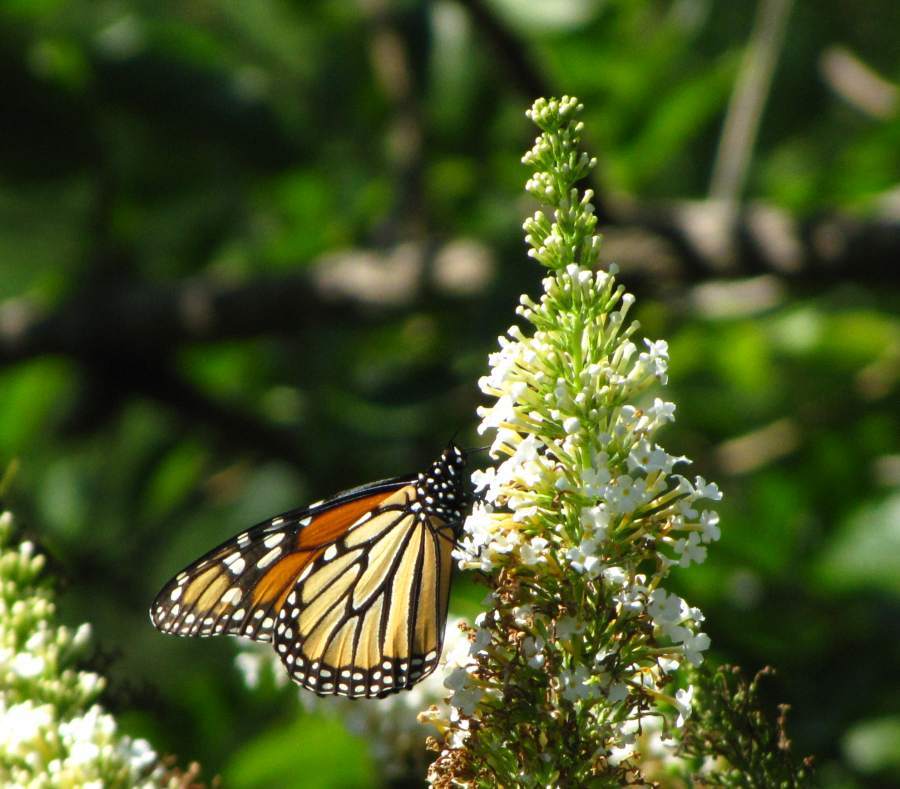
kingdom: Animalia
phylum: Arthropoda
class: Insecta
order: Lepidoptera
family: Nymphalidae
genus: Danaus
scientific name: Danaus plexippus
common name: Monarch
